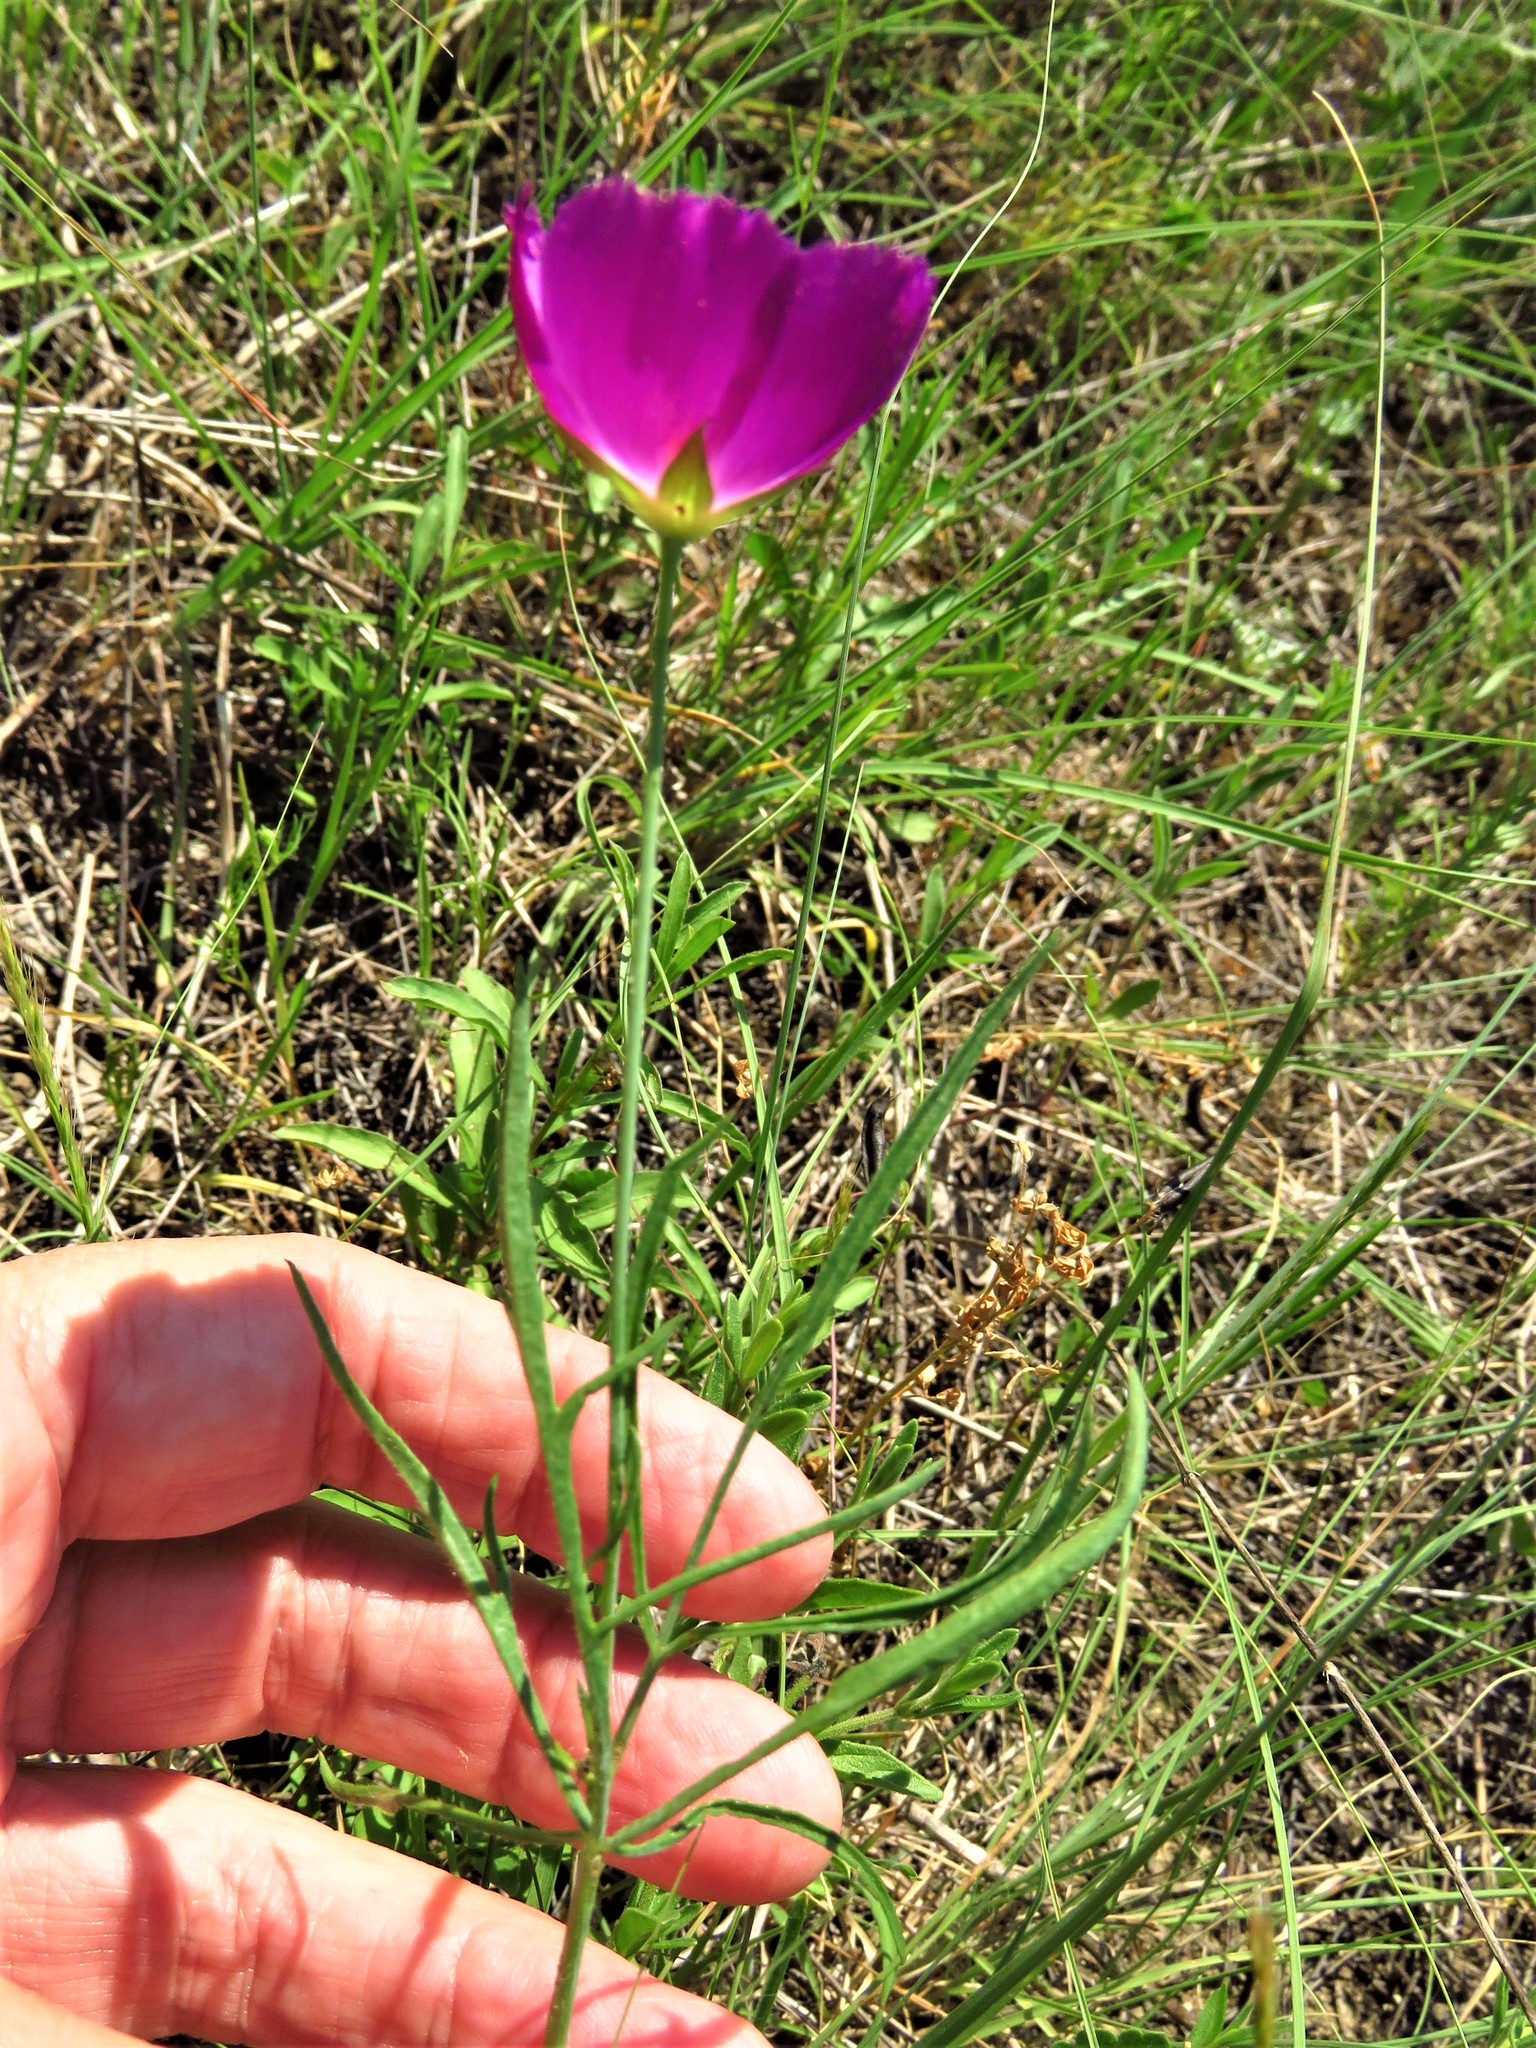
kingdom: Plantae
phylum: Tracheophyta
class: Magnoliopsida
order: Malvales
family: Malvaceae
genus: Callirhoe
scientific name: Callirhoe pedata
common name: Finger poppy-mallow
